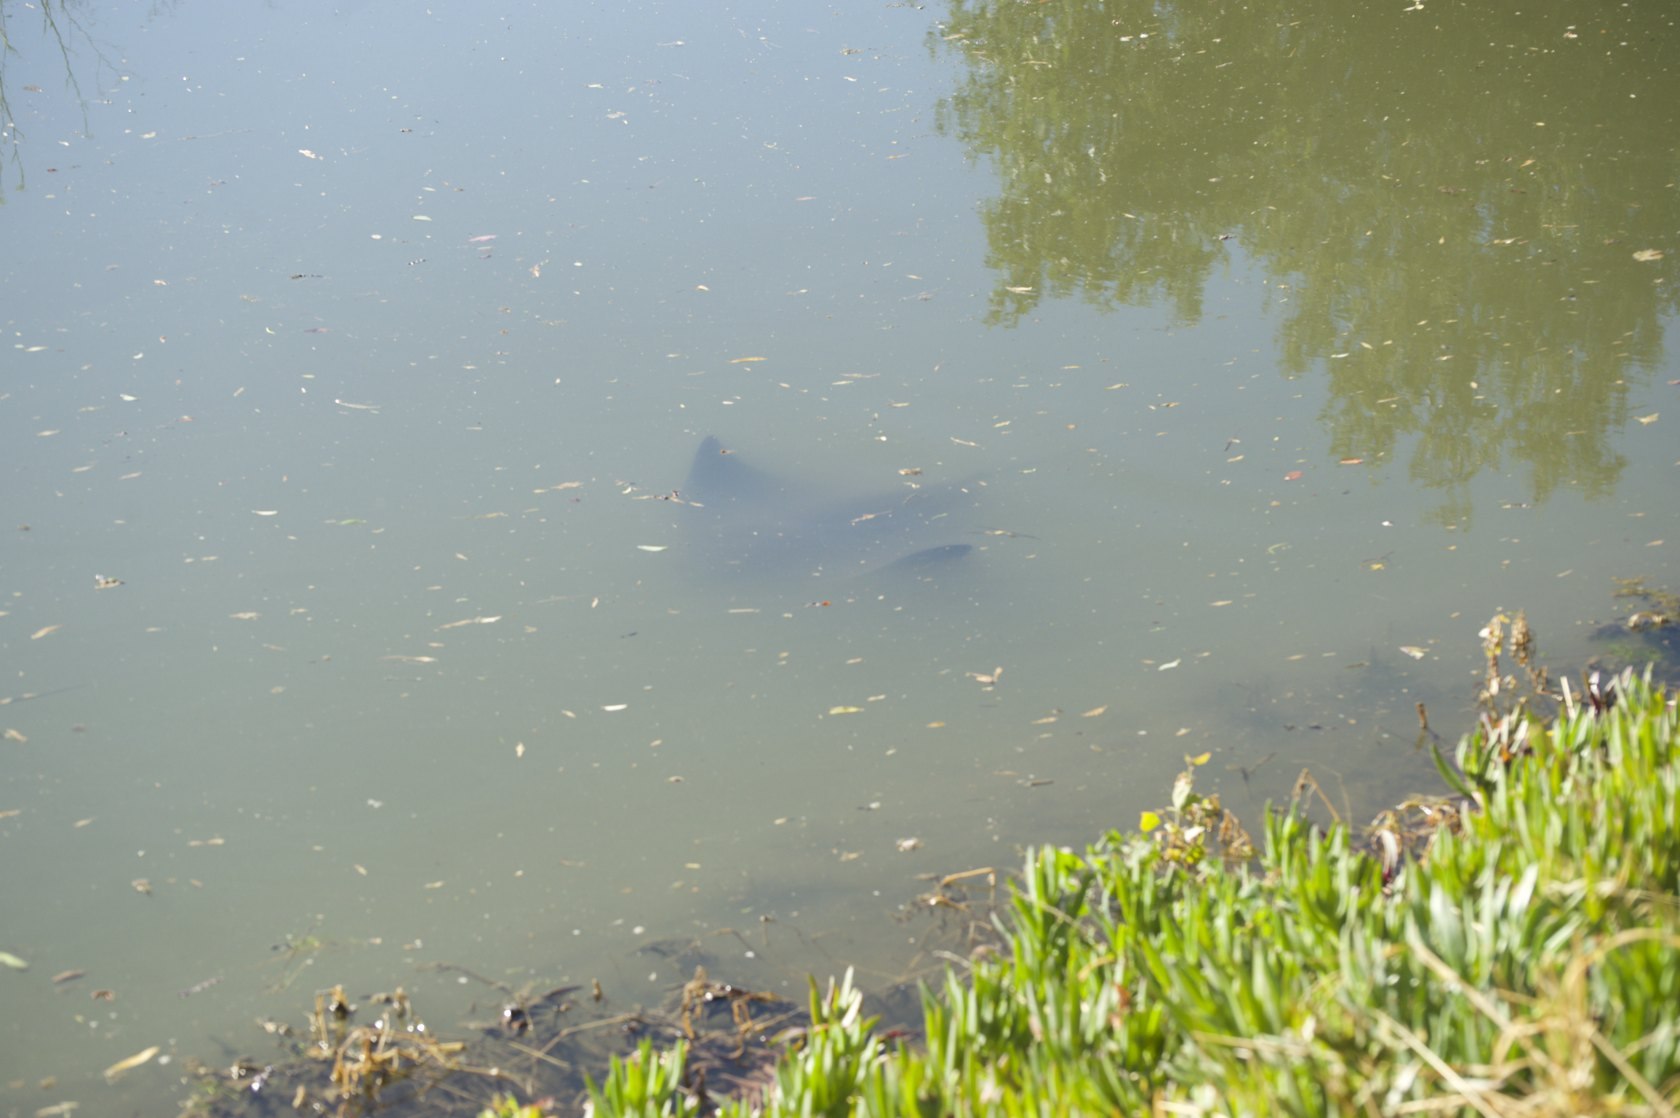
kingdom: Animalia
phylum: Chordata
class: Elasmobranchii
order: Myliobatiformes
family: Myliobatidae
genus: Myliobatis
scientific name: Myliobatis californica
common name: Bat ray
